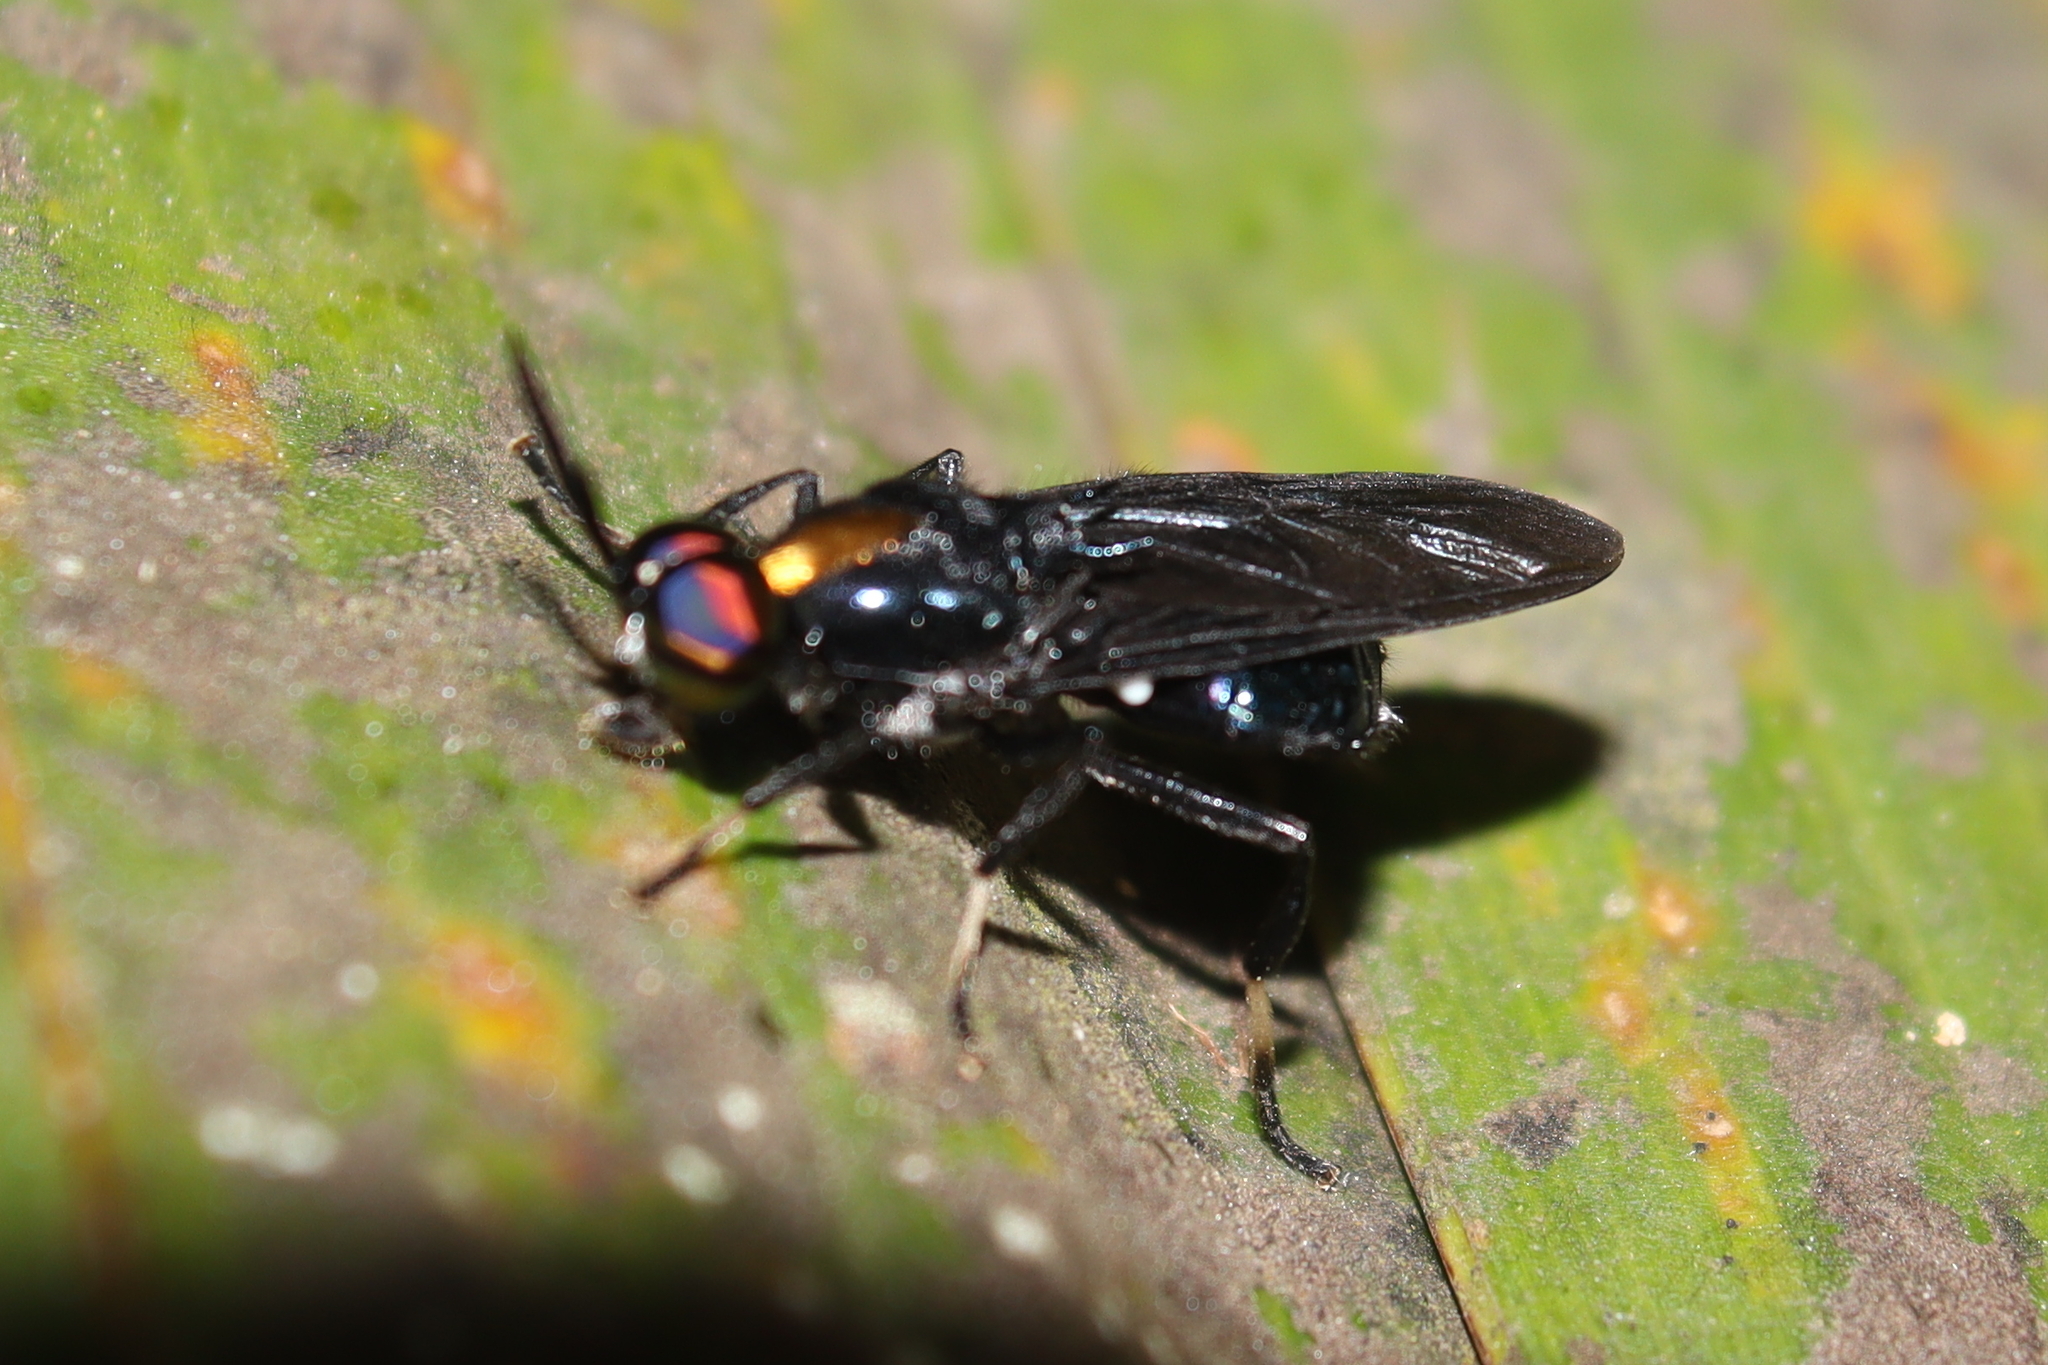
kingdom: Animalia
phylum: Arthropoda
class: Insecta
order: Diptera
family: Stratiomyidae
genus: Cyphomyia
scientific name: Cyphomyia auriflamma
